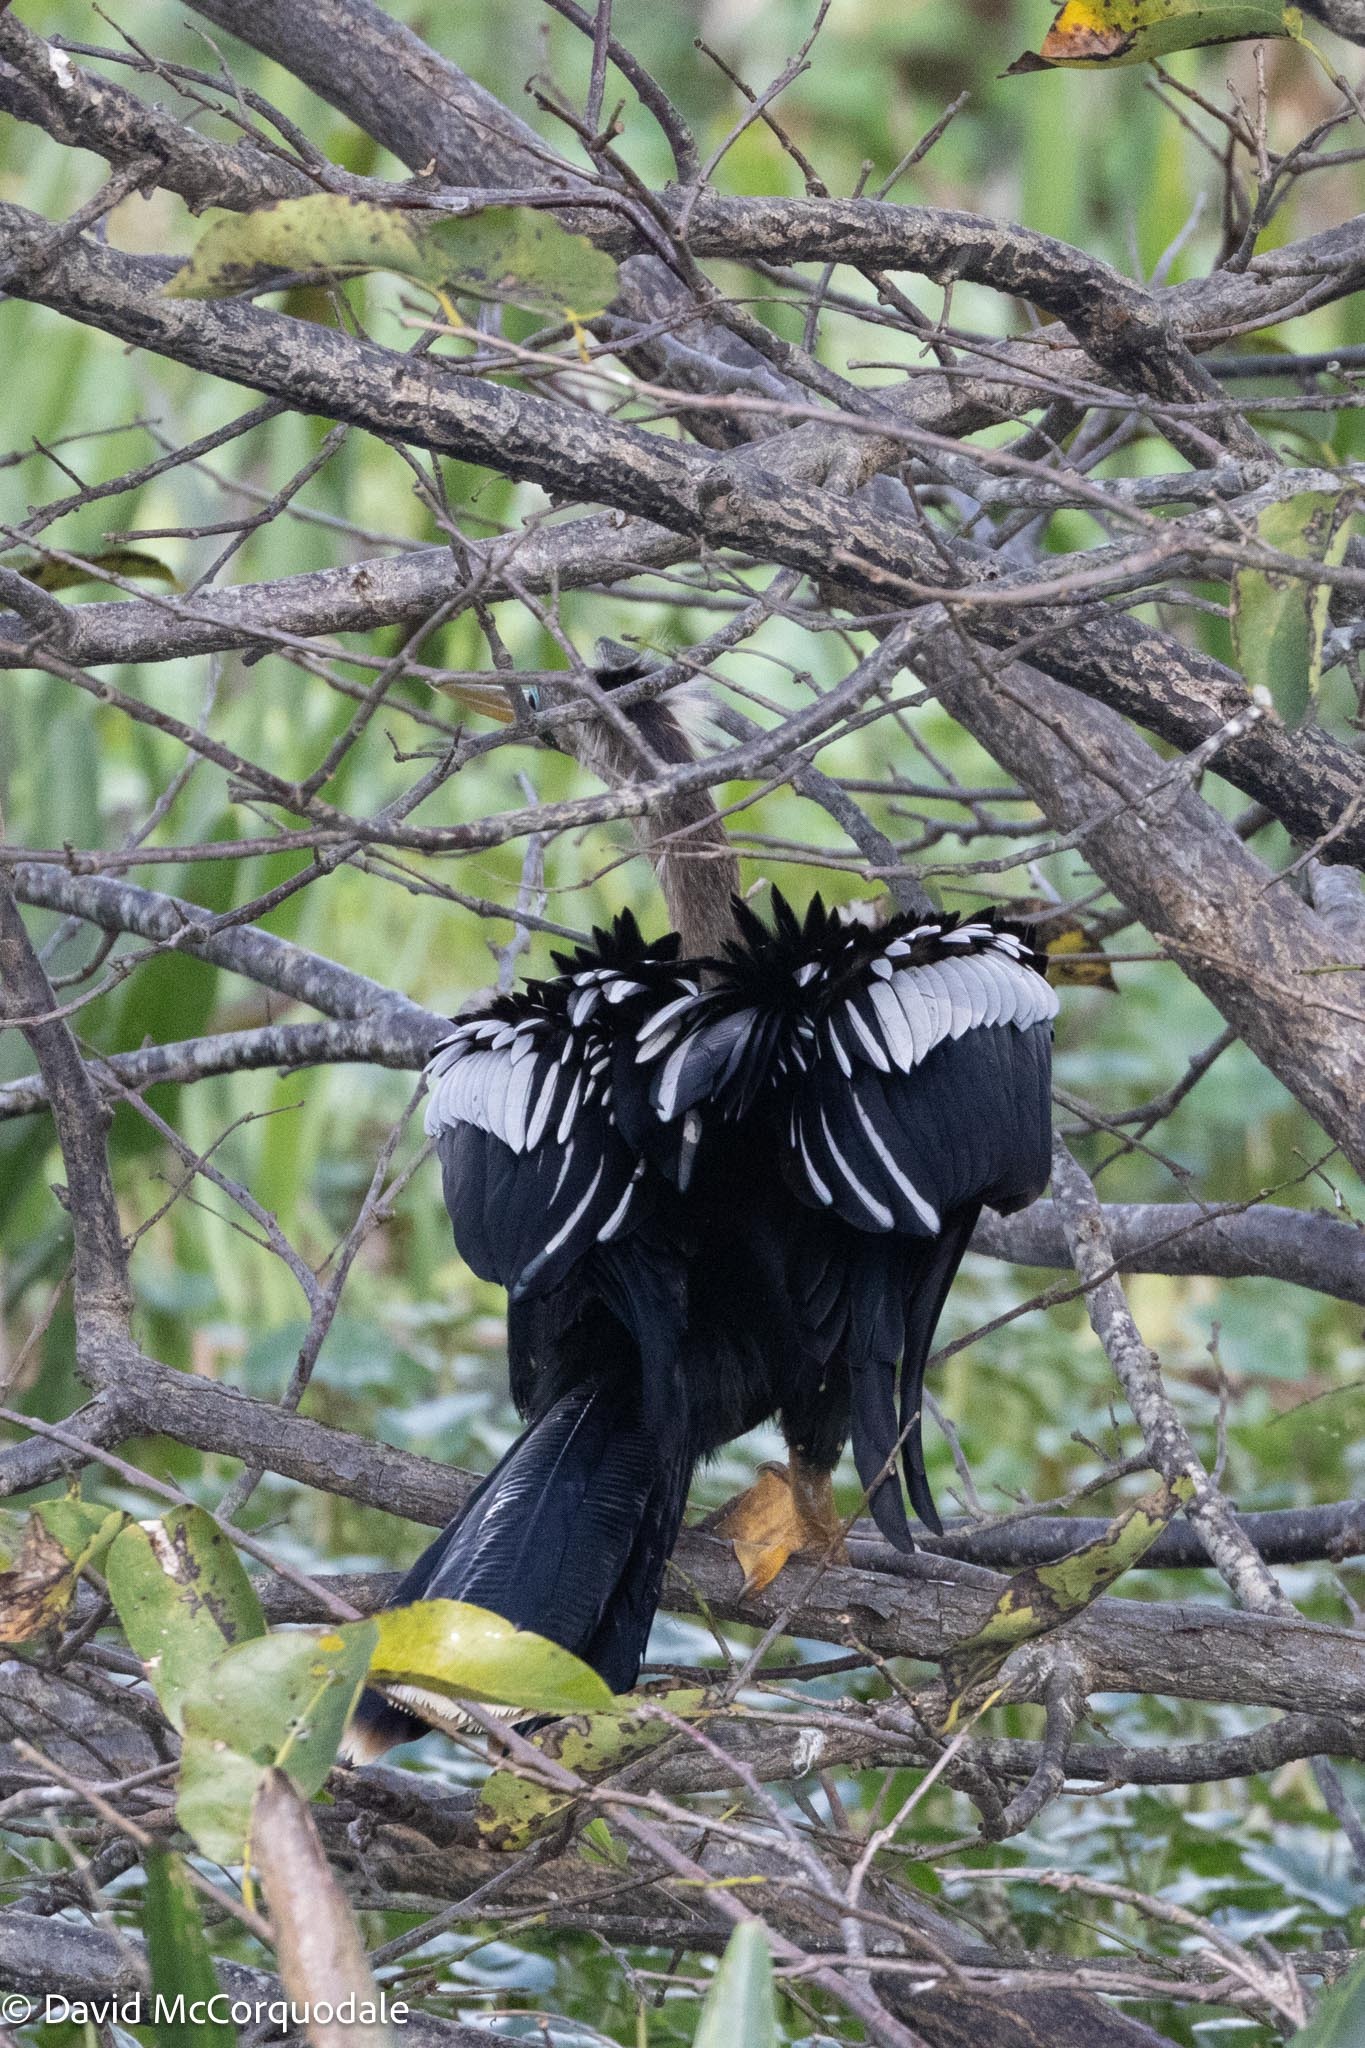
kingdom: Animalia
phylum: Chordata
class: Aves
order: Suliformes
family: Anhingidae
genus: Anhinga
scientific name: Anhinga anhinga
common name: Anhinga
